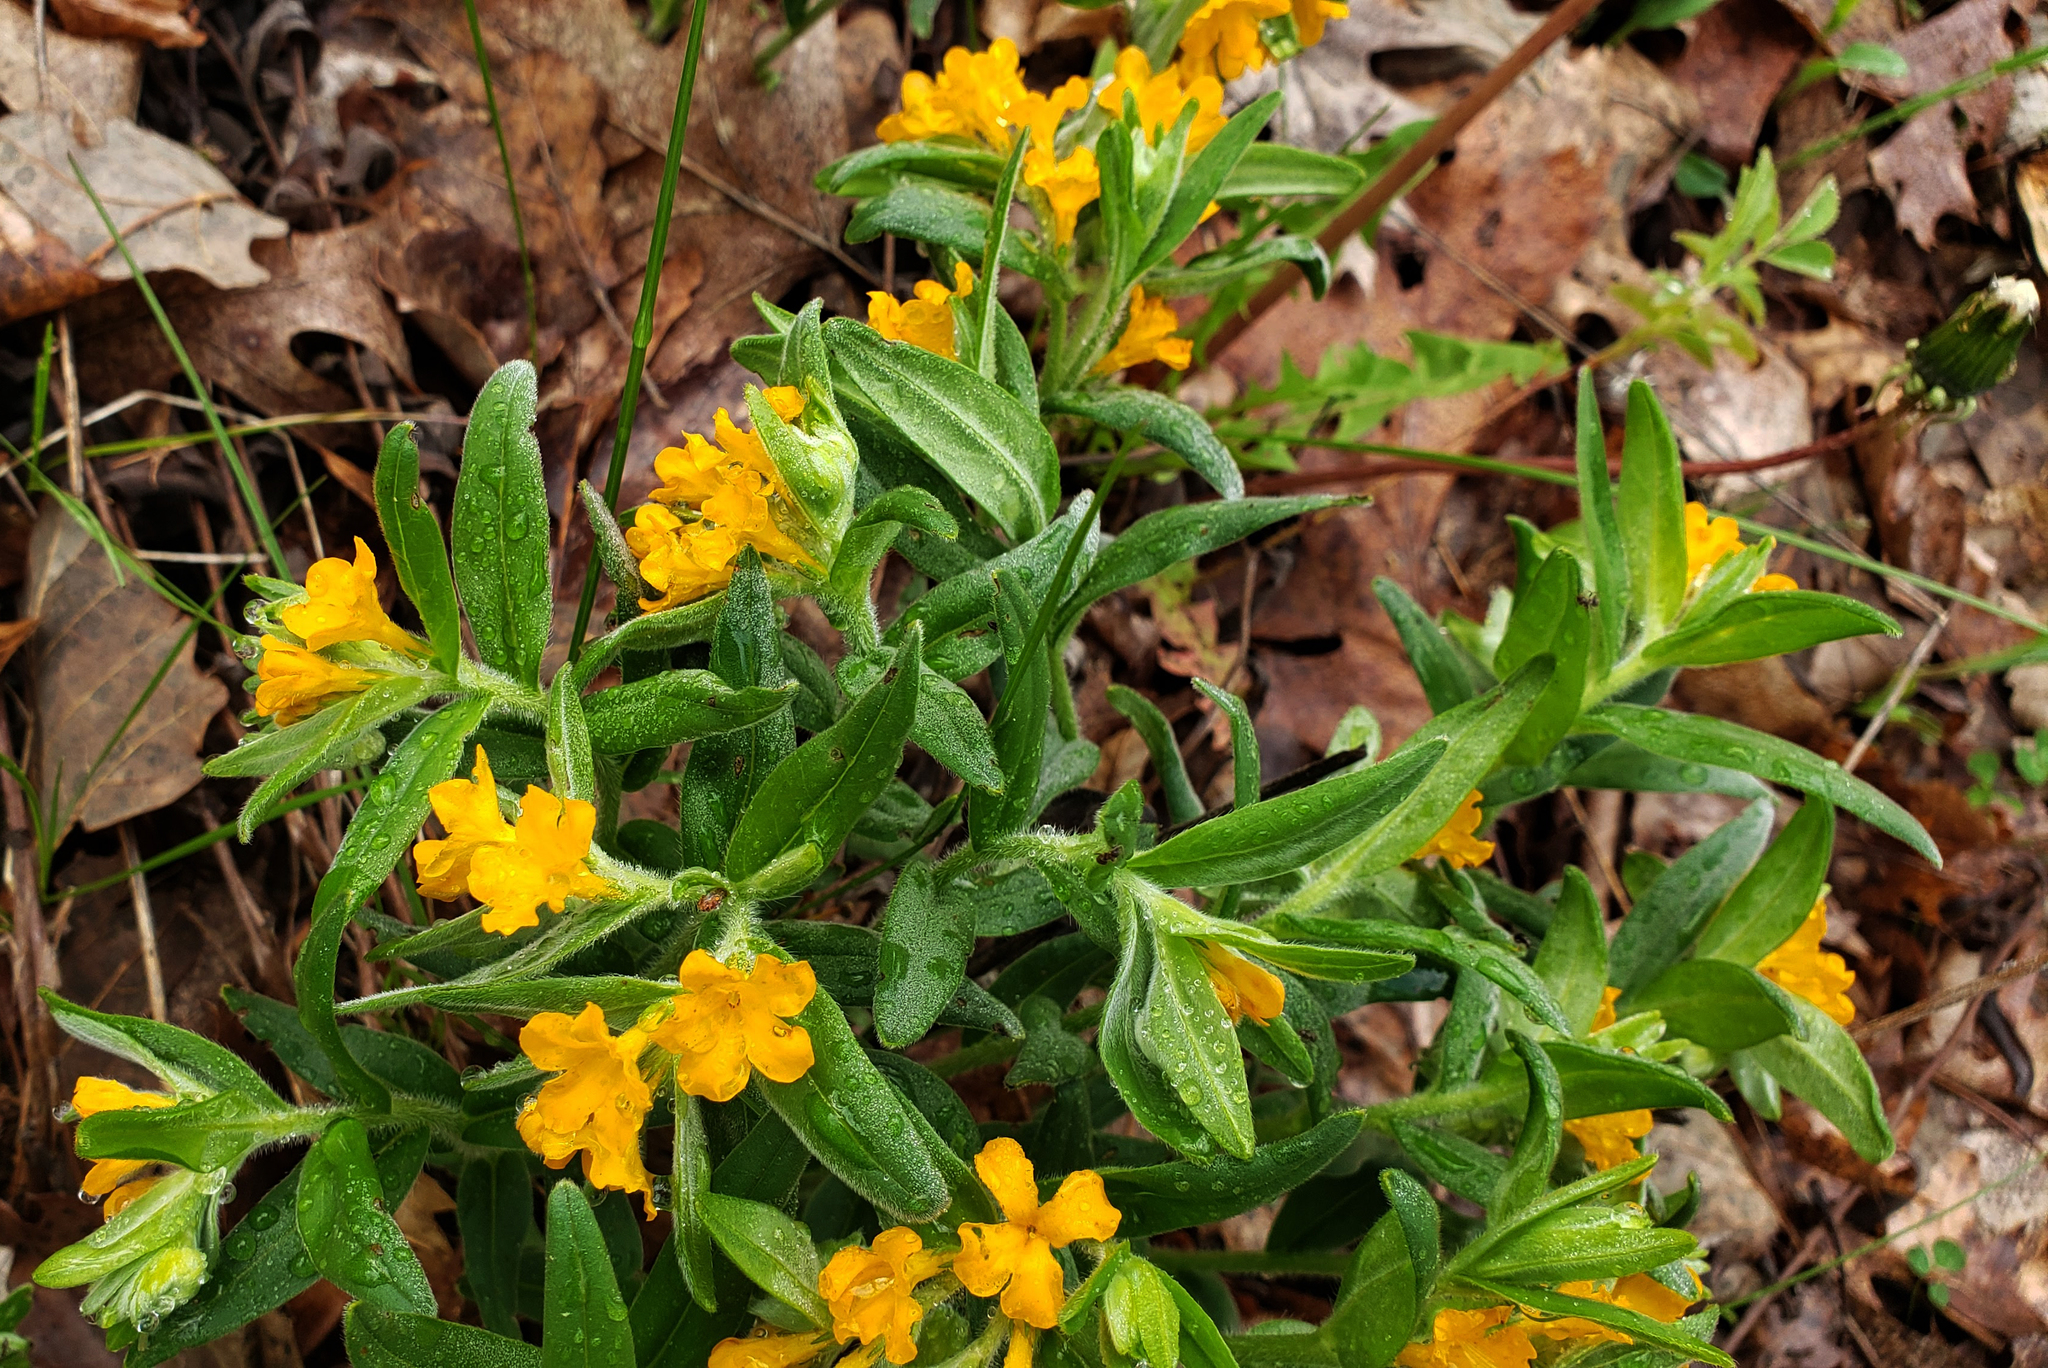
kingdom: Plantae
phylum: Tracheophyta
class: Magnoliopsida
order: Boraginales
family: Boraginaceae
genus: Lithospermum
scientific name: Lithospermum canescens
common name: Hoary puccoon
